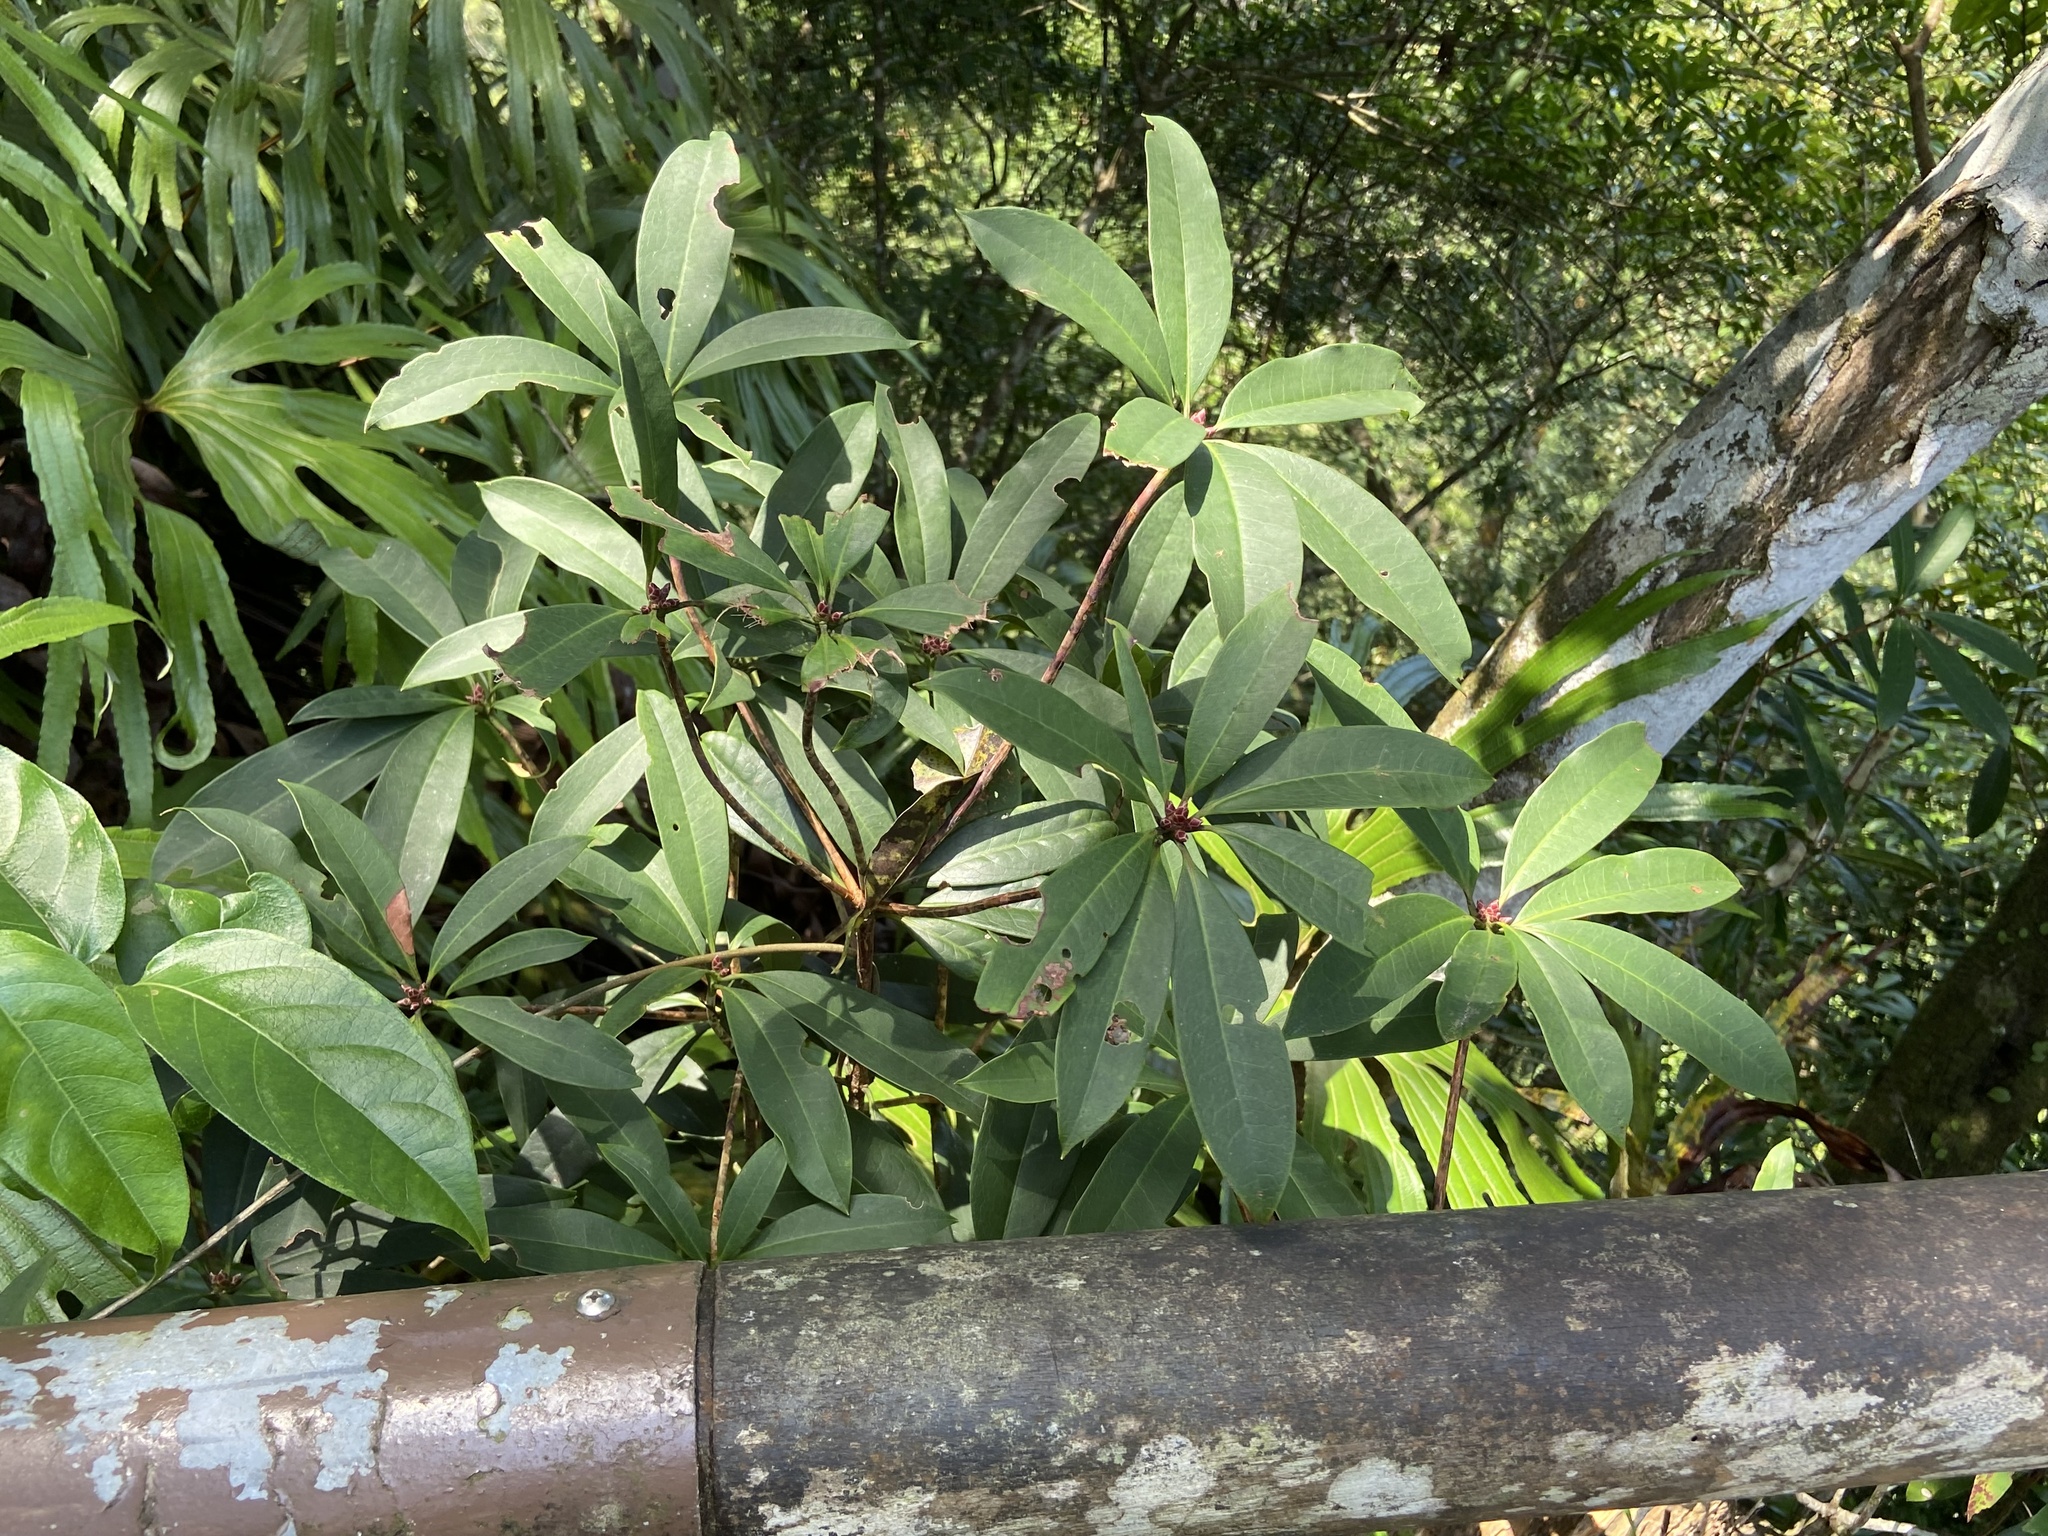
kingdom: Plantae
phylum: Tracheophyta
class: Magnoliopsida
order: Ericales
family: Ericaceae
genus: Rhododendron
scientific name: Rhododendron latoucheae
